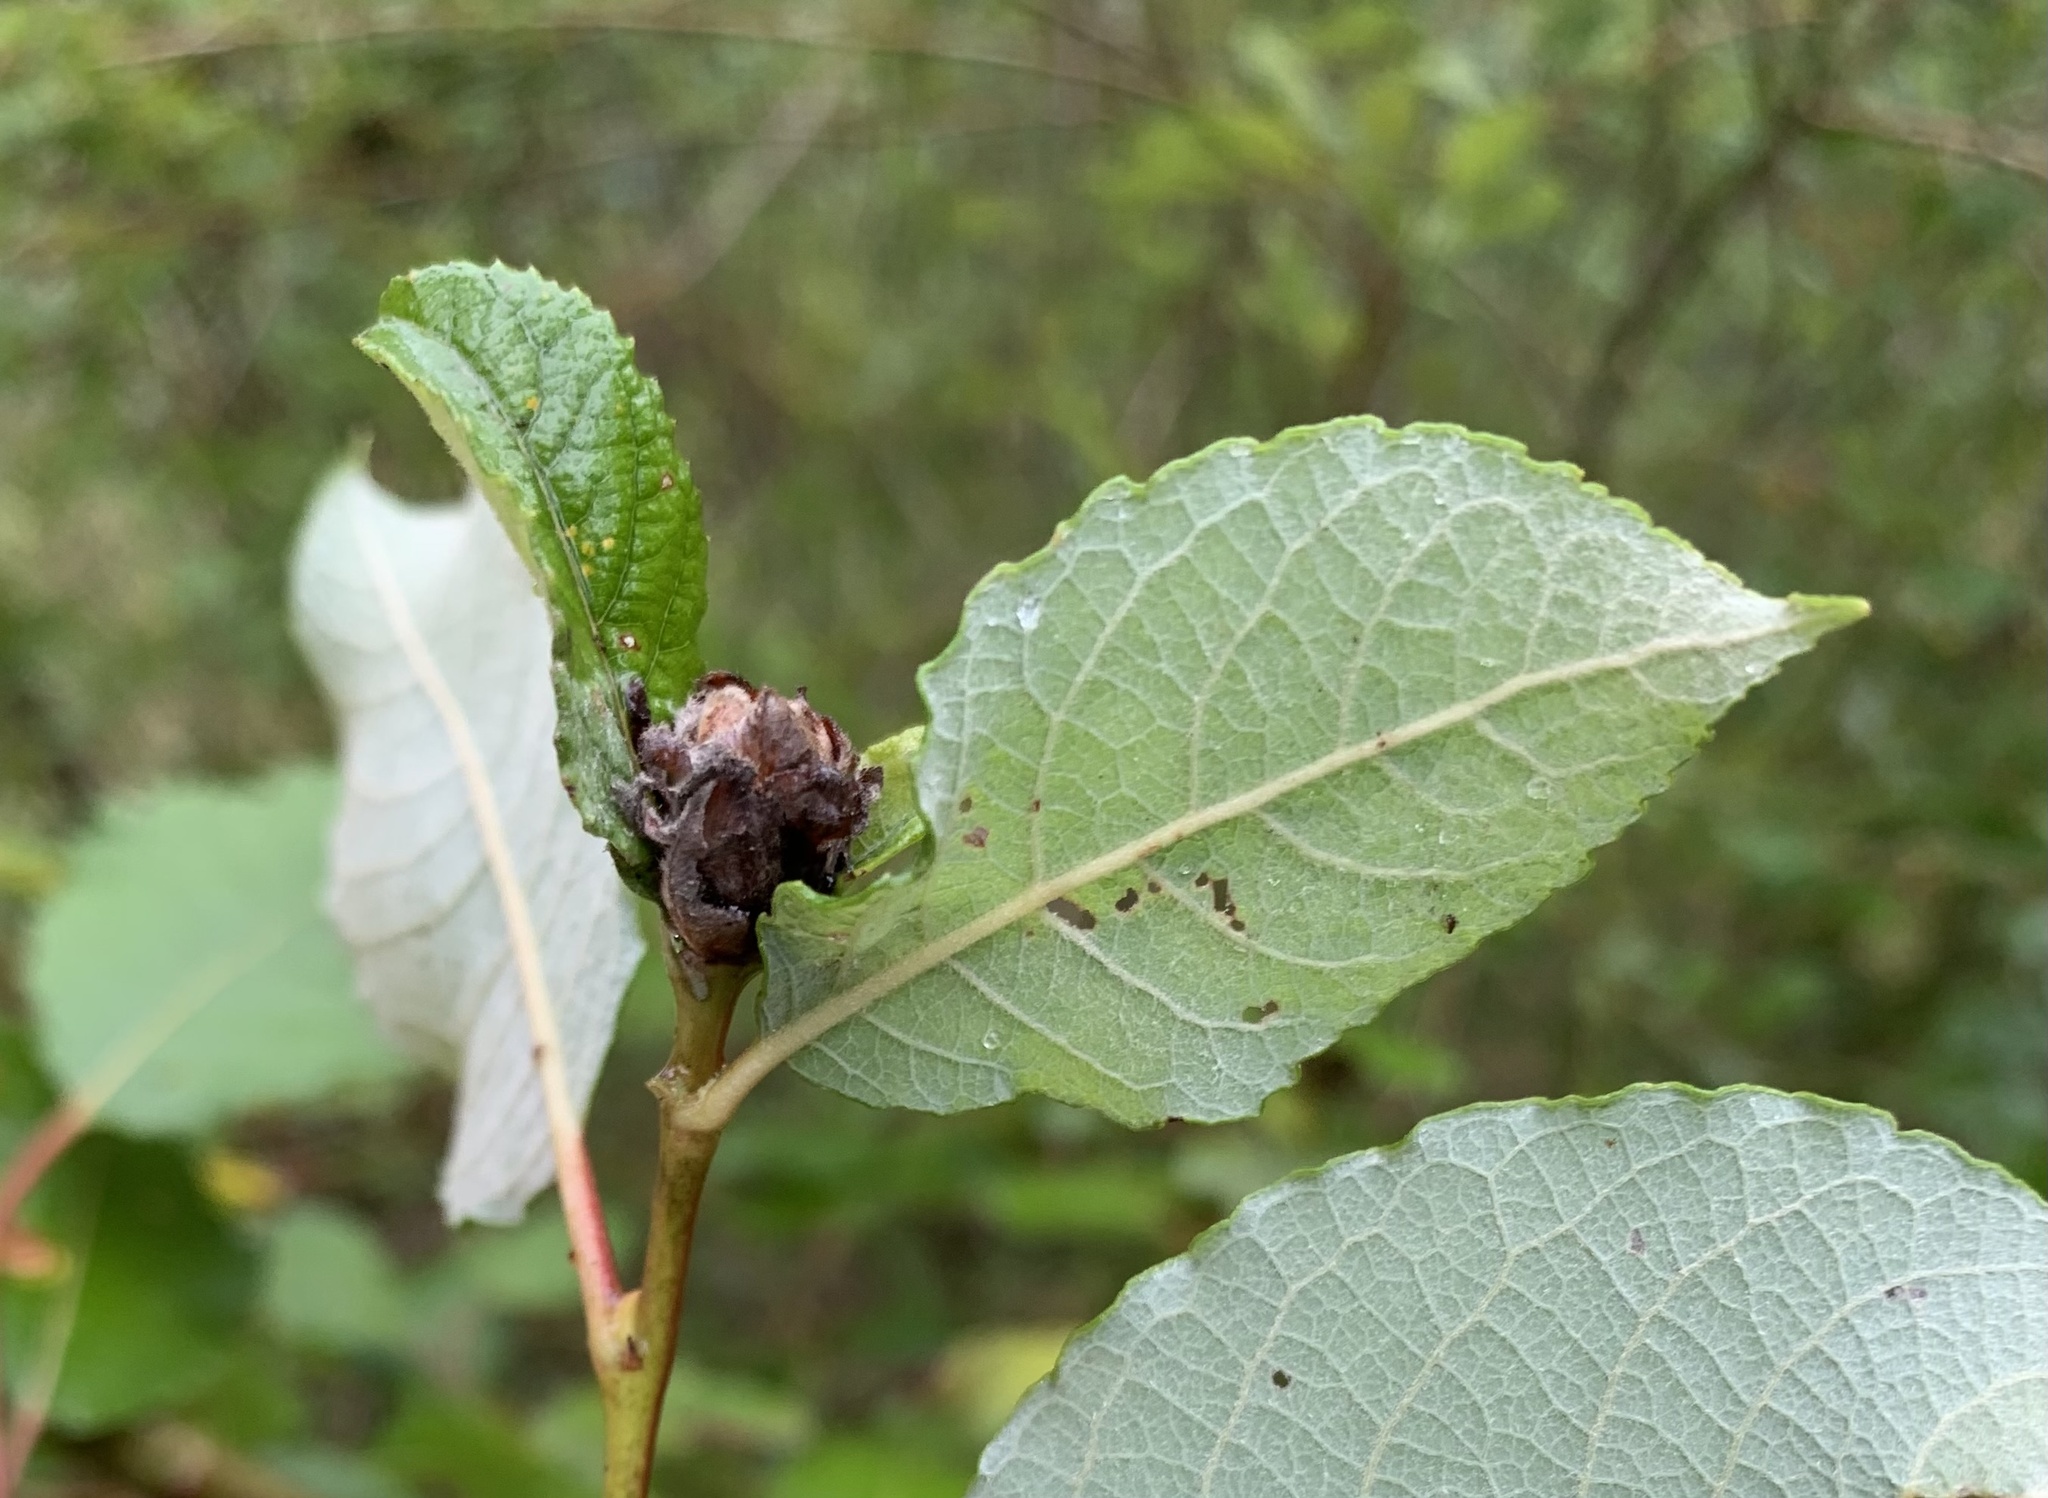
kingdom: Animalia
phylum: Arthropoda
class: Insecta
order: Diptera
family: Cecidomyiidae
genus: Dasineura
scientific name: Dasineura strobilina
